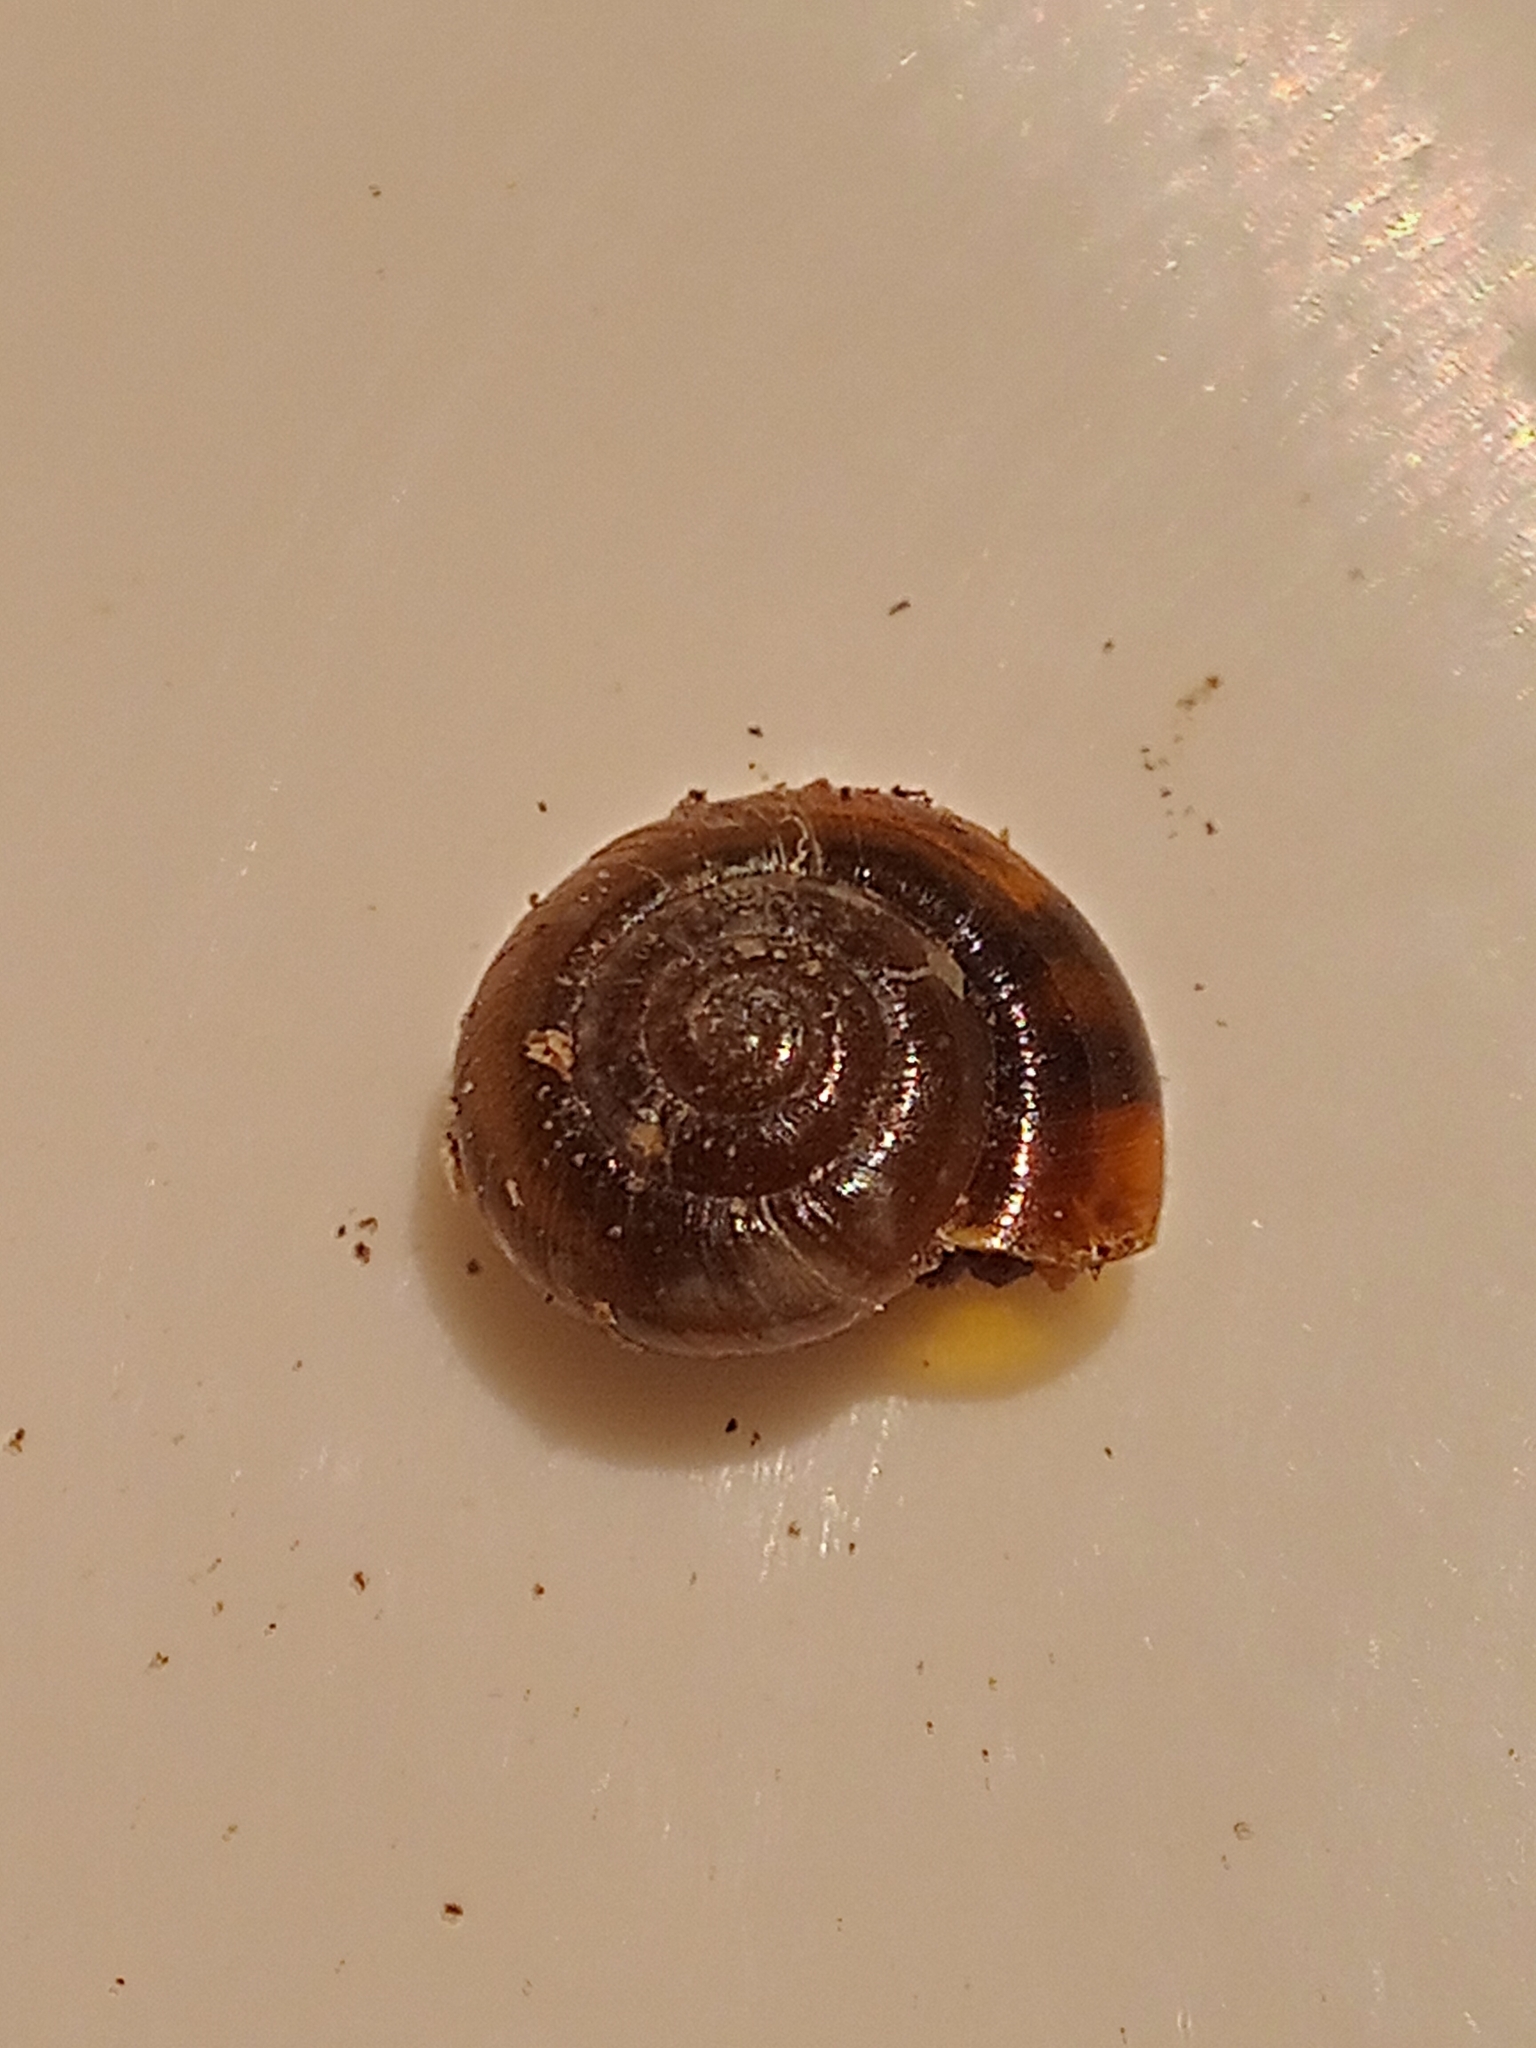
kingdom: Animalia
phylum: Mollusca
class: Gastropoda
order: Stylommatophora
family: Gastrodontidae
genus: Zonitoides
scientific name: Zonitoides nitidus
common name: Shiny glass snail
